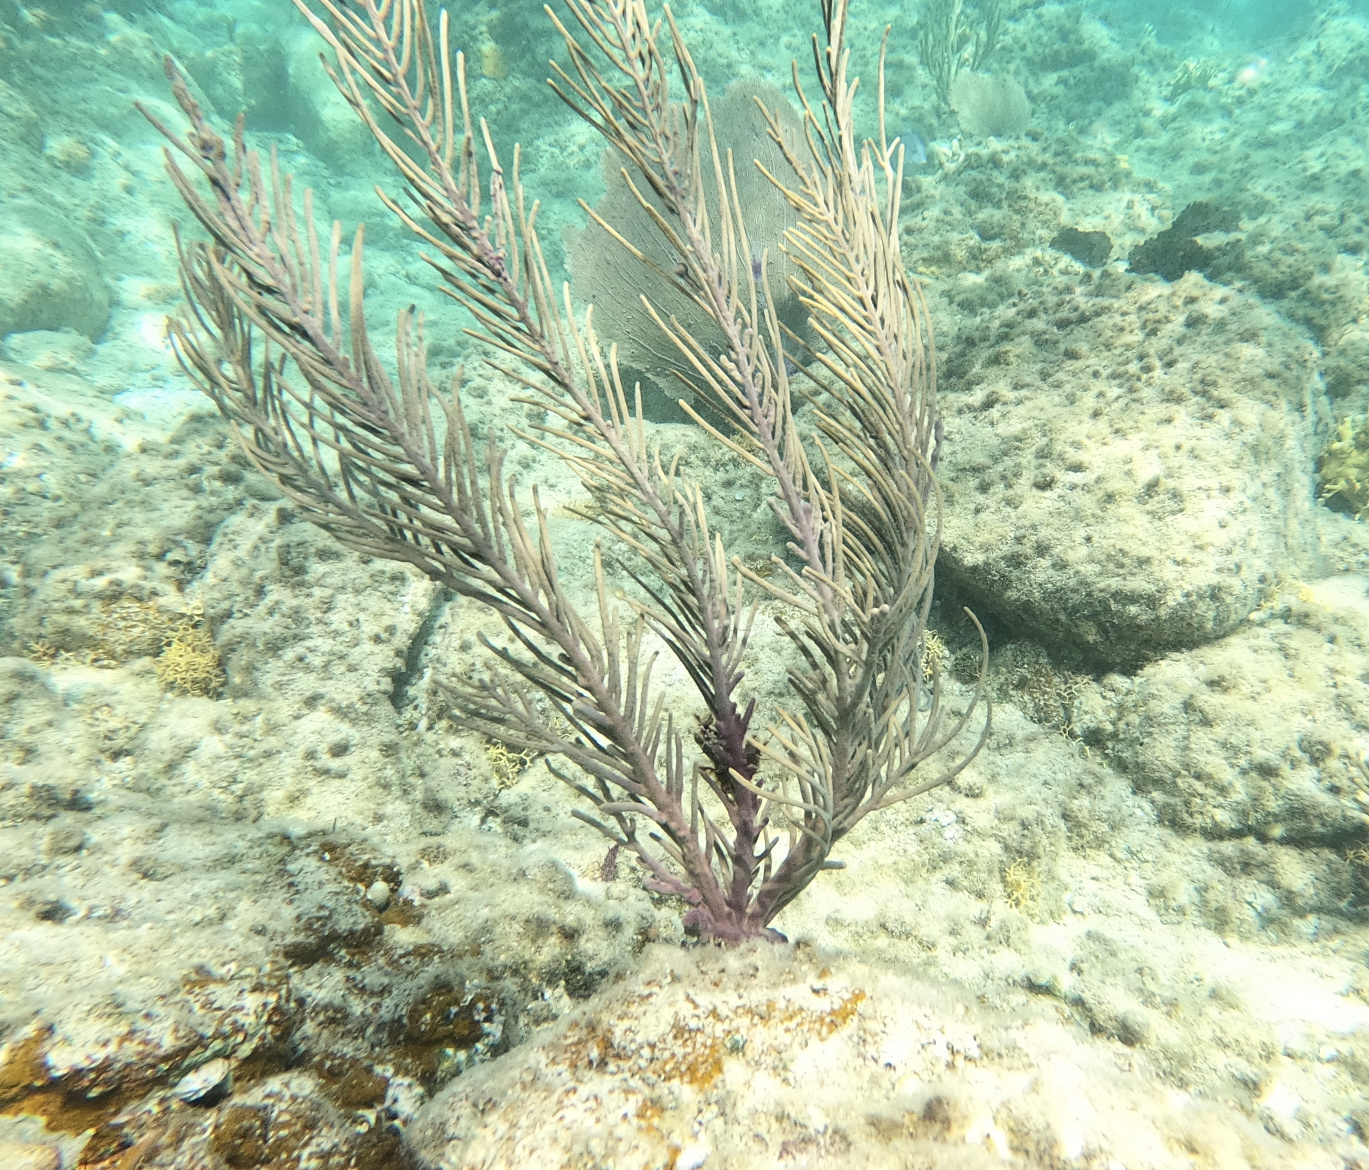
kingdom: Animalia
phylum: Cnidaria
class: Anthozoa
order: Malacalcyonacea
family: Gorgoniidae
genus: Antillogorgia
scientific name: Antillogorgia rigida
